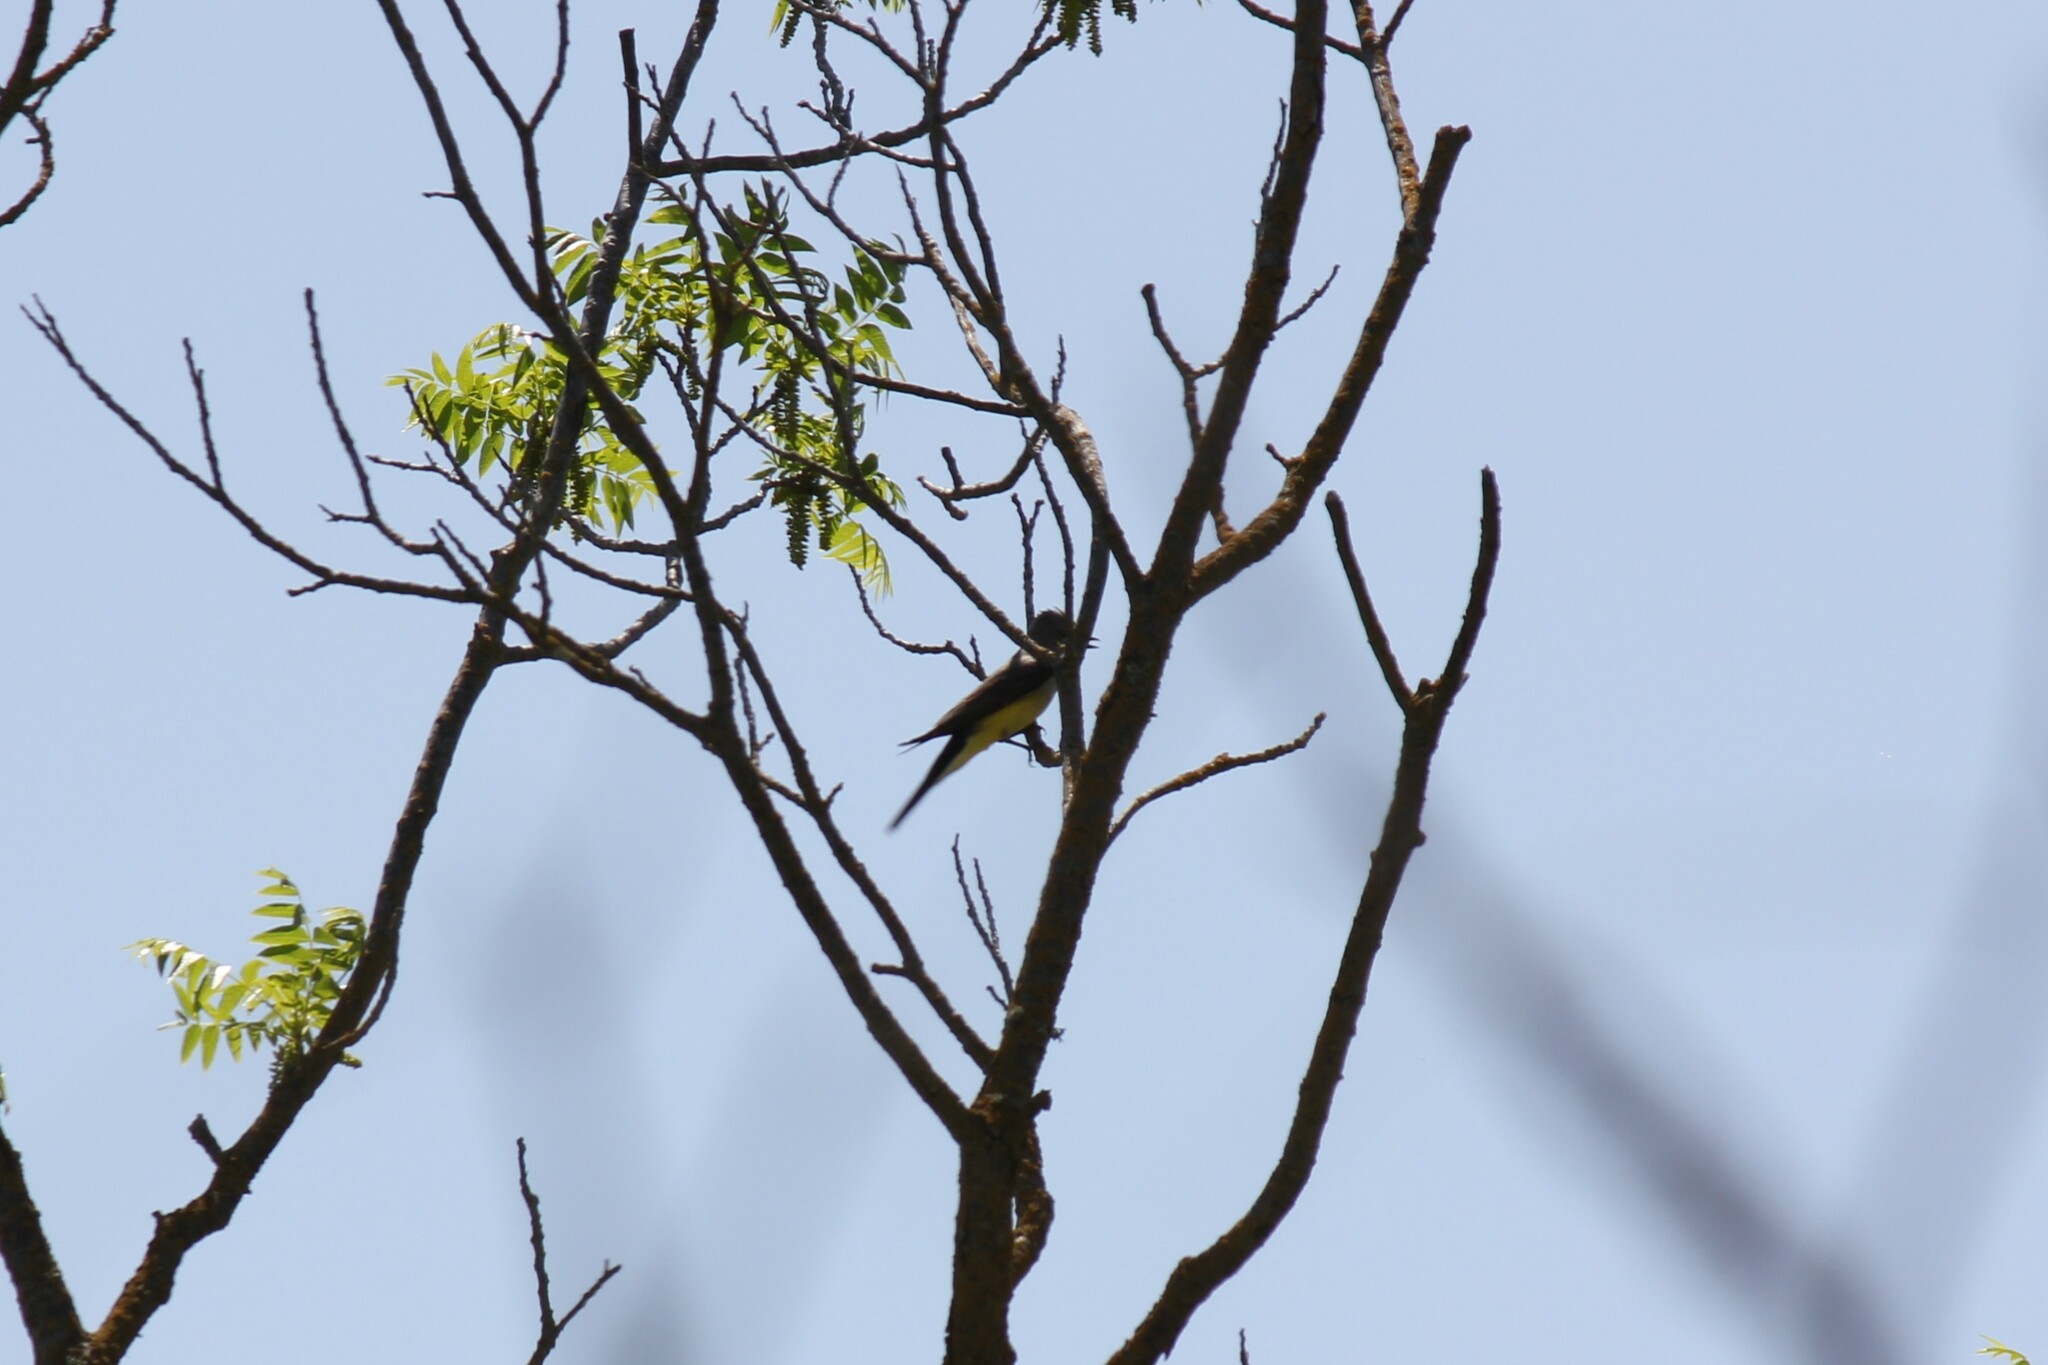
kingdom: Animalia
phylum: Chordata
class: Aves
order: Passeriformes
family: Tyrannidae
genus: Tyrannus
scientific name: Tyrannus verticalis
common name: Western kingbird
